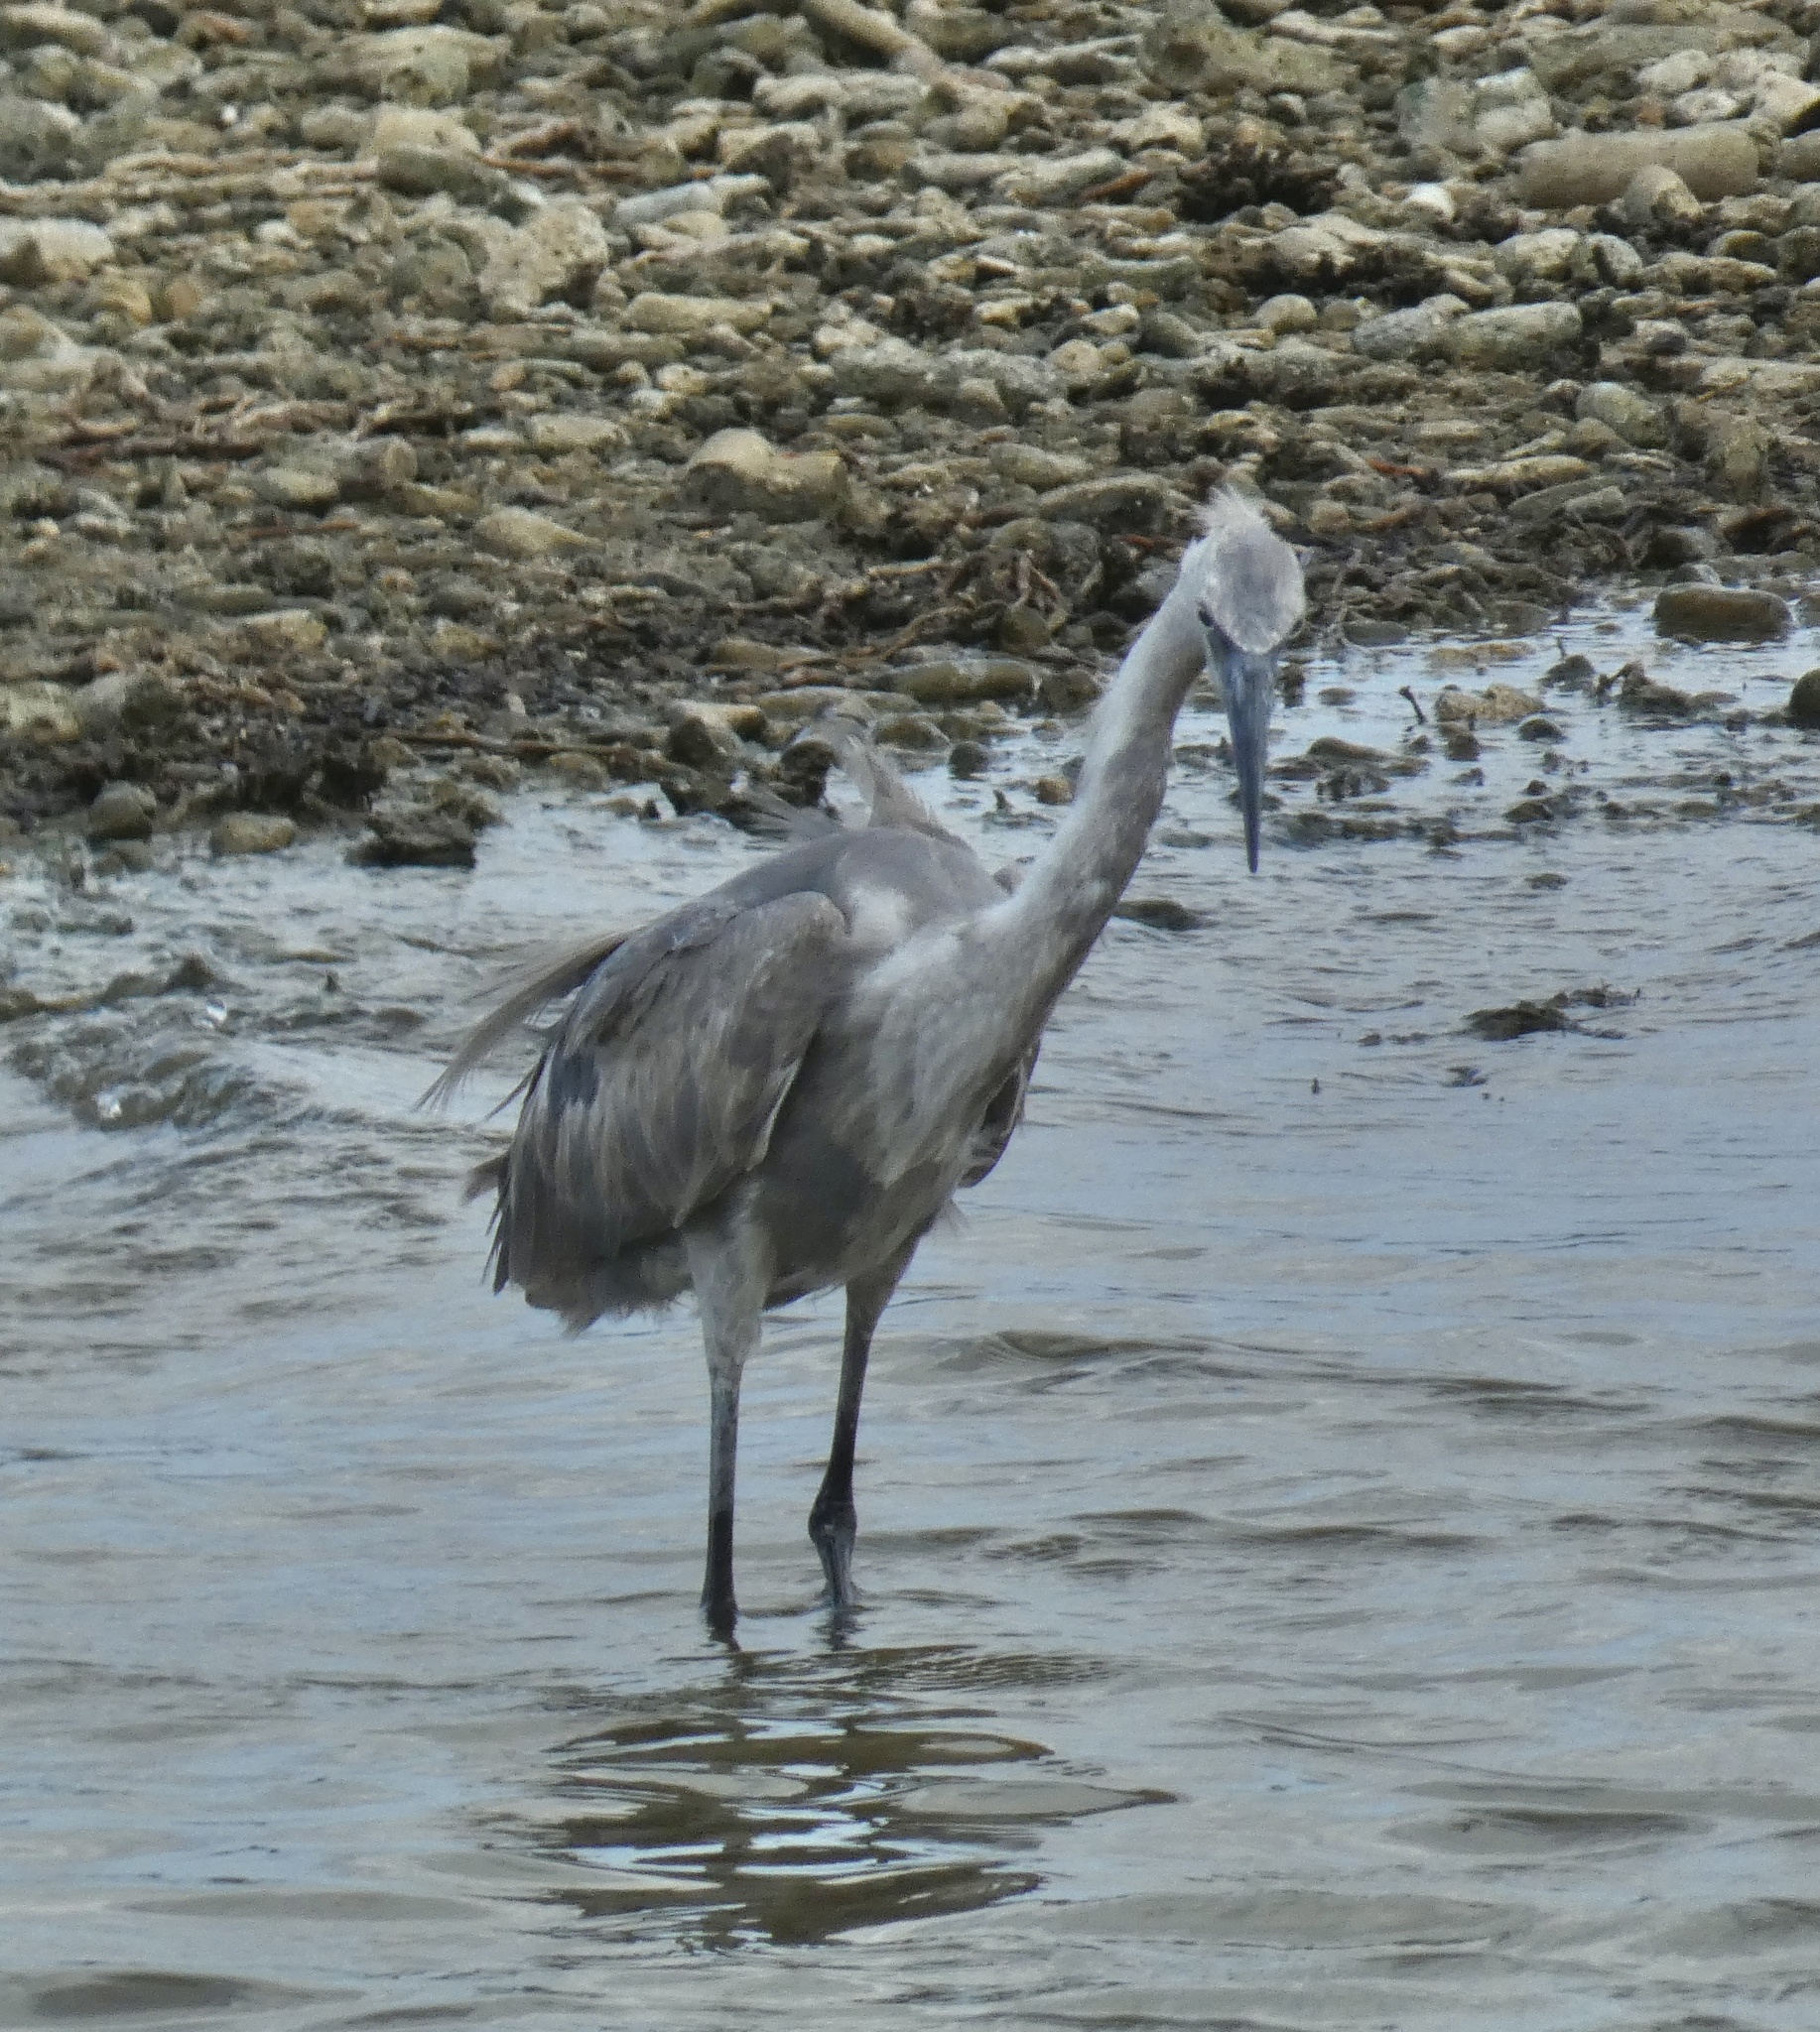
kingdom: Animalia
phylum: Chordata
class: Aves
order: Pelecaniformes
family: Ardeidae
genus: Egretta
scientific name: Egretta rufescens
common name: Reddish egret
